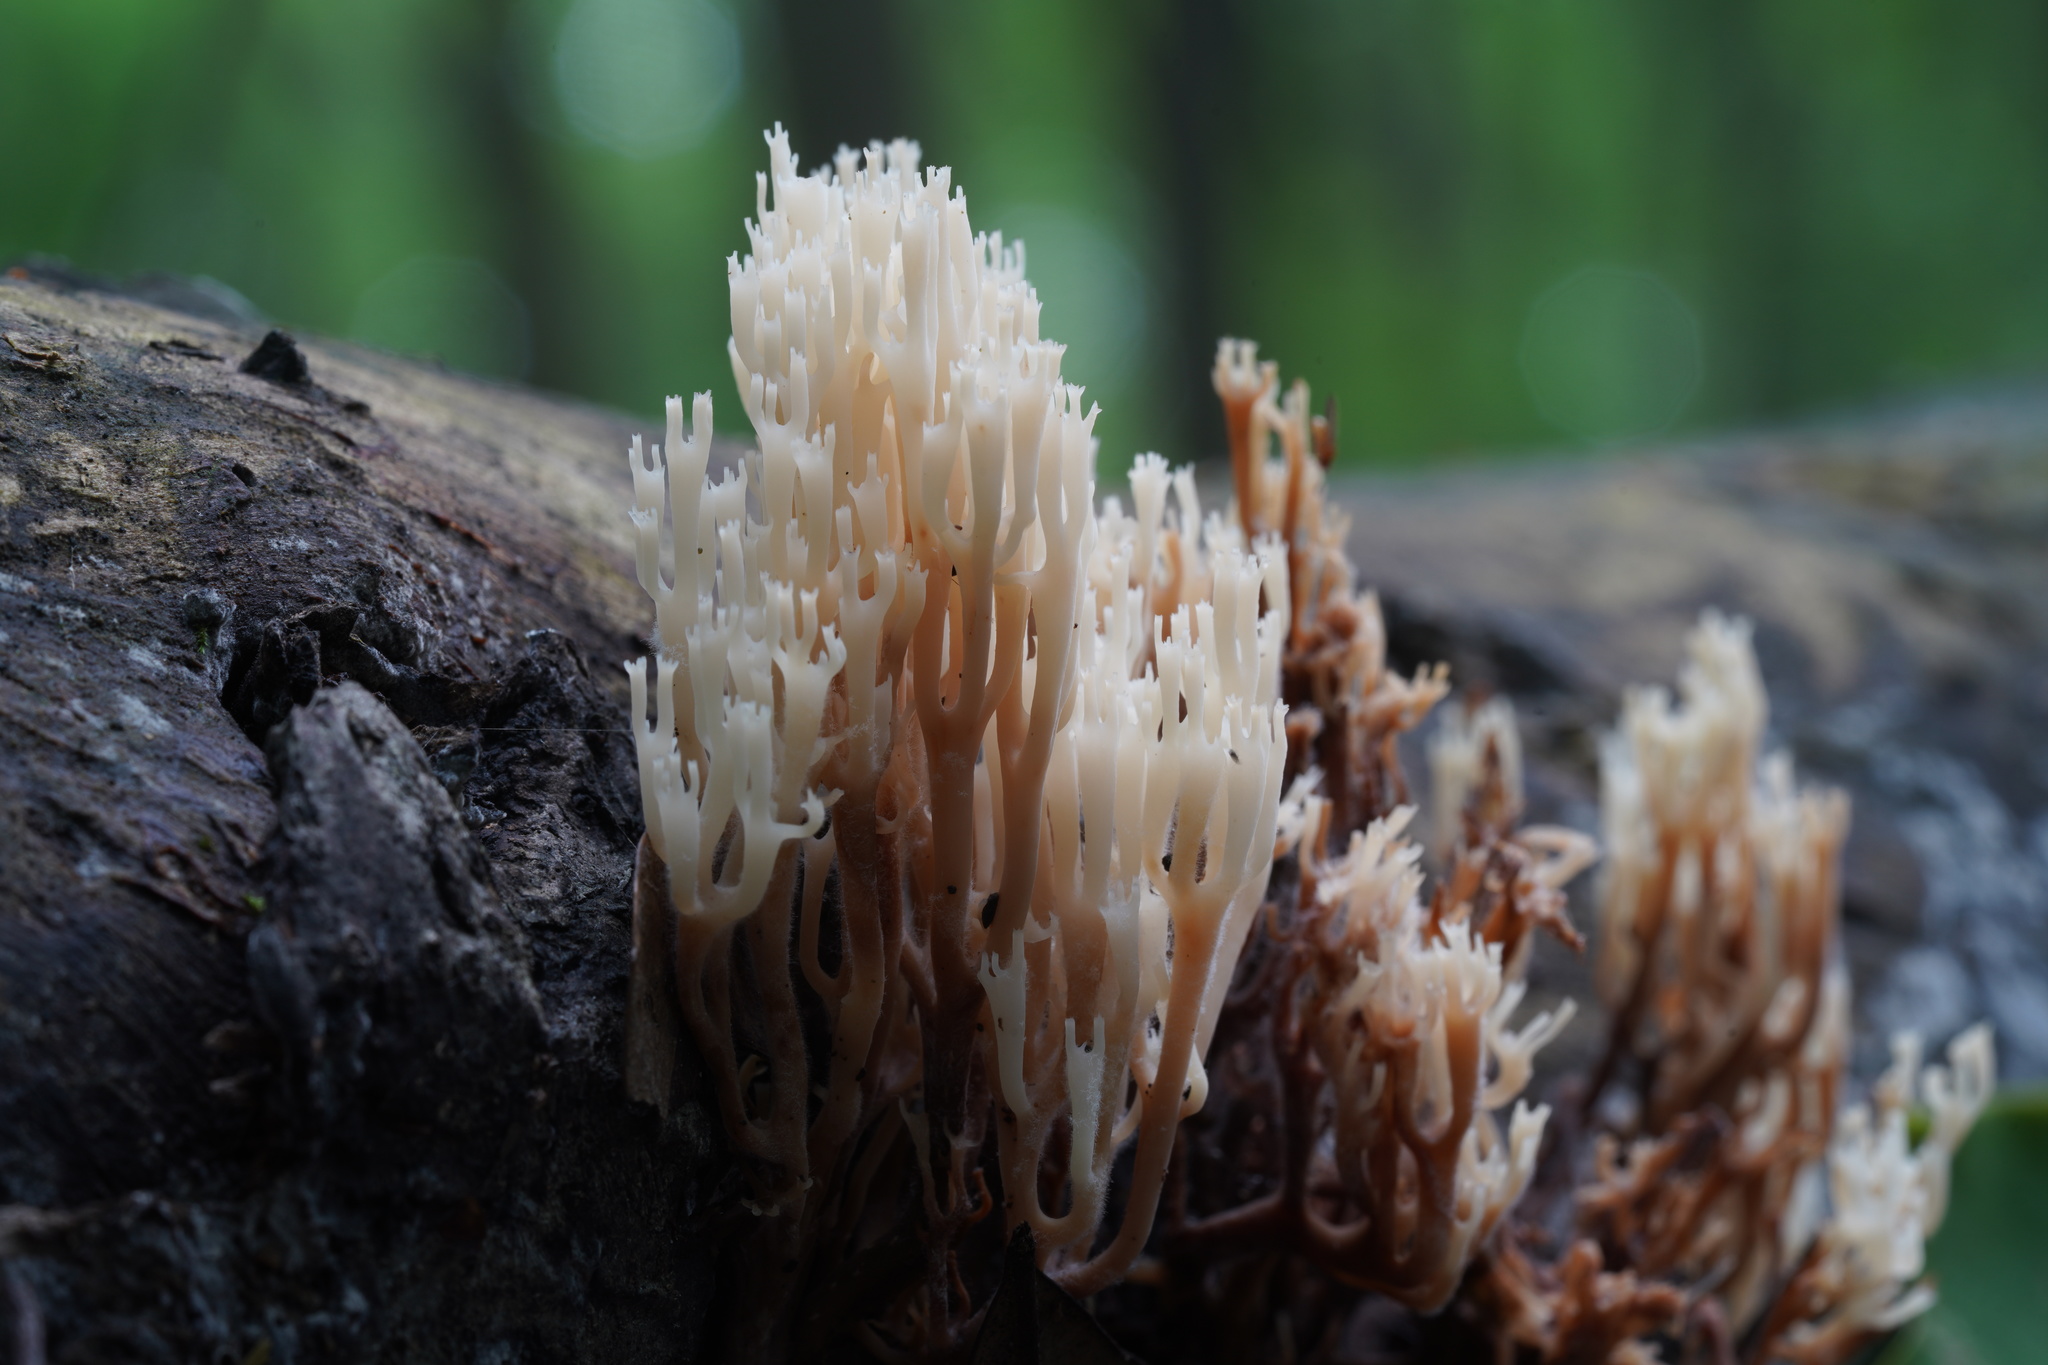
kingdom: Fungi
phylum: Basidiomycota
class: Agaricomycetes
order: Russulales
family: Auriscalpiaceae
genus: Artomyces
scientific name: Artomyces pyxidatus
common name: Crown-tipped coral fungus
